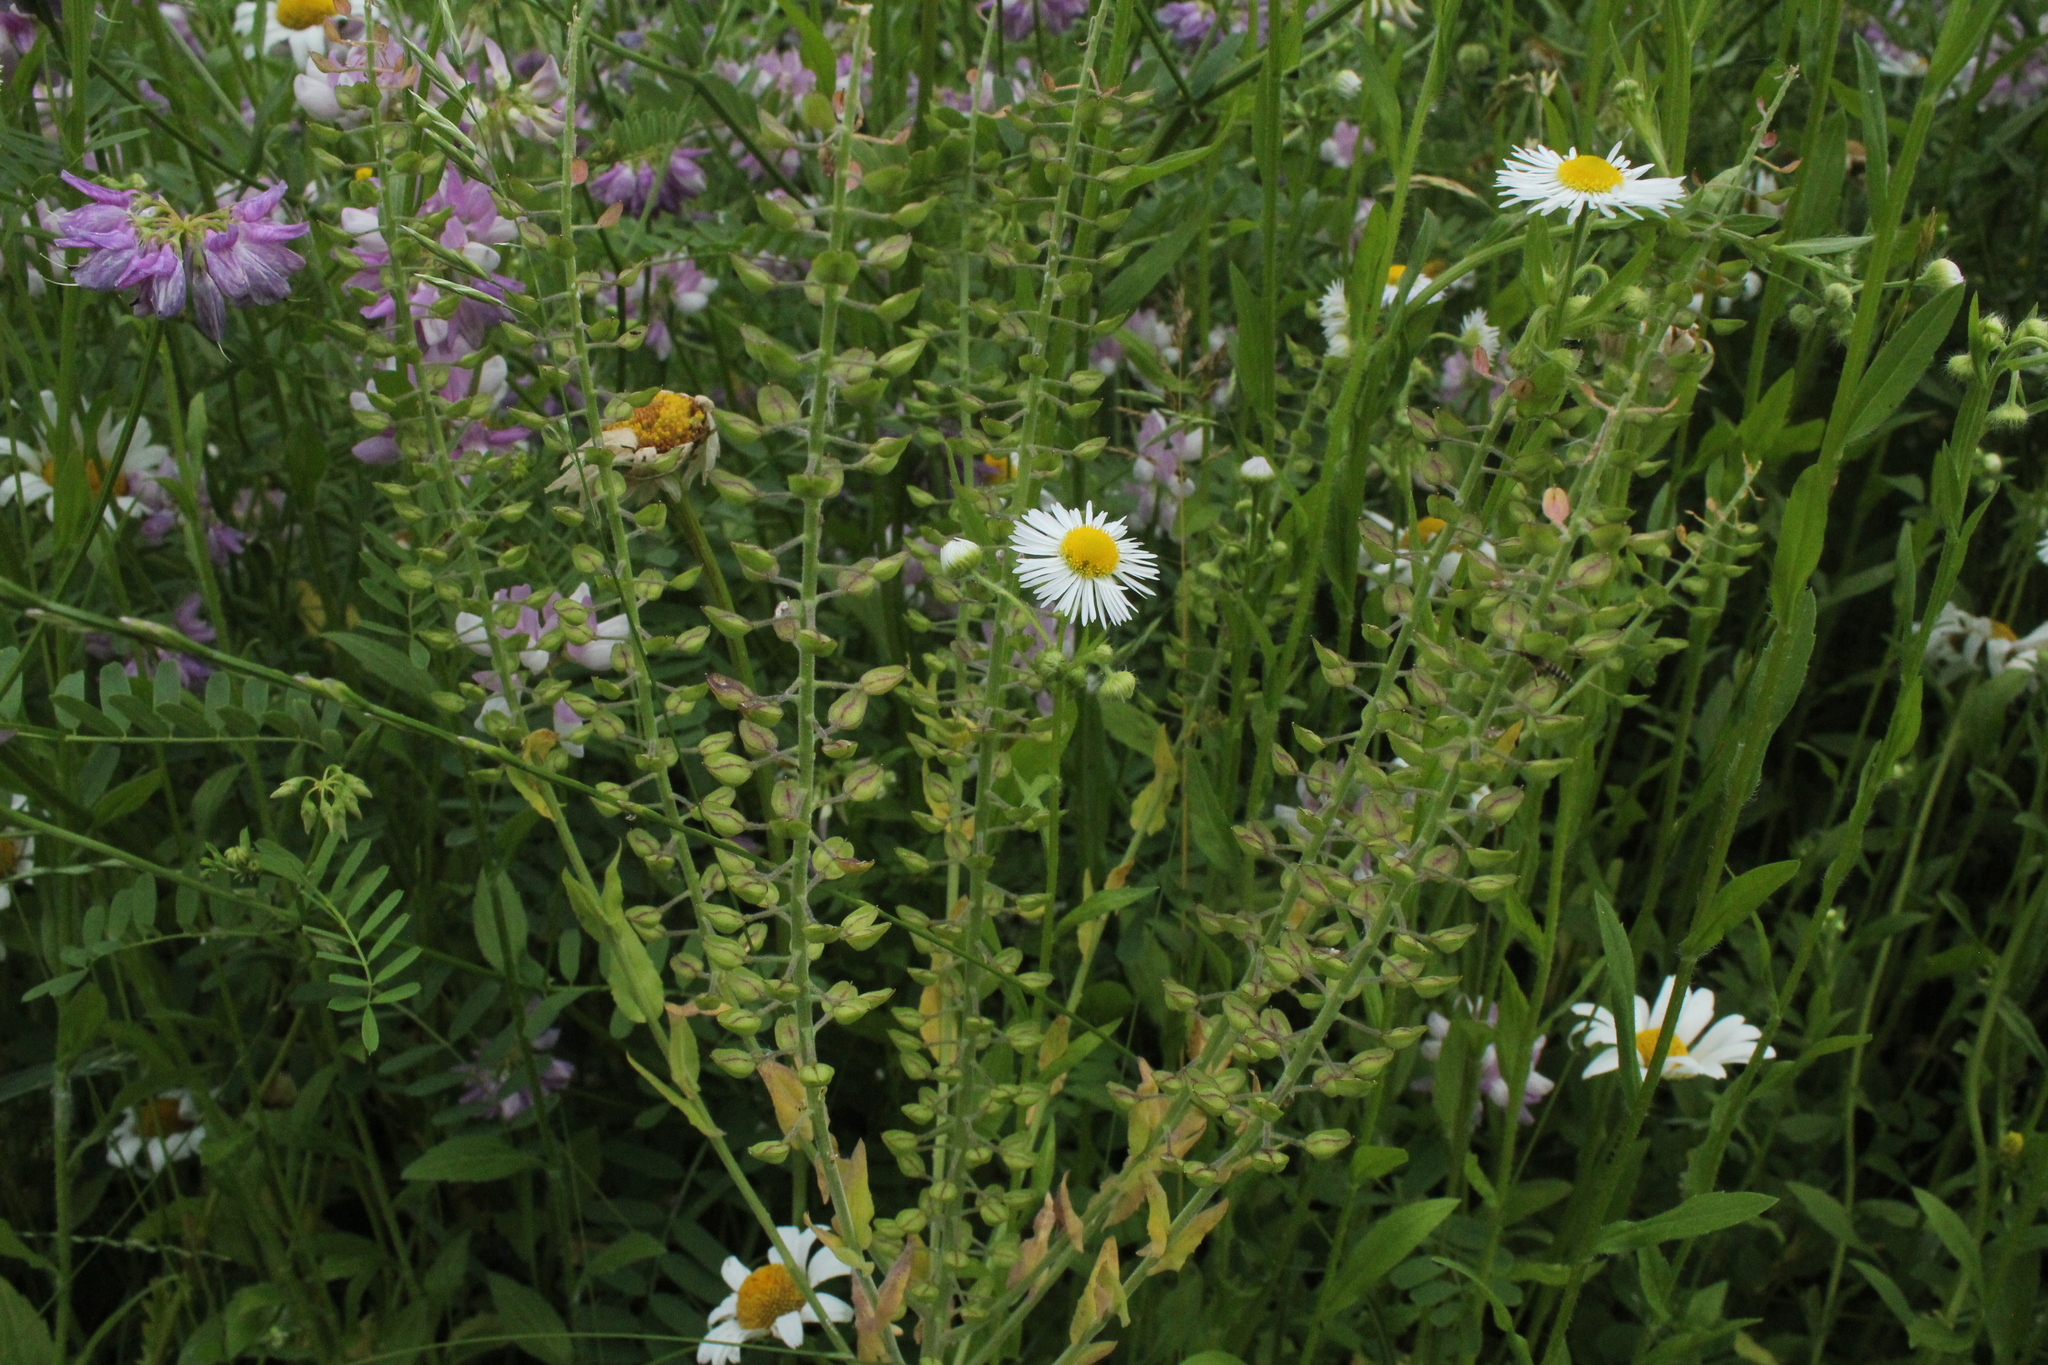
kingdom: Plantae
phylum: Tracheophyta
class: Magnoliopsida
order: Brassicales
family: Brassicaceae
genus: Lepidium
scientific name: Lepidium campestre
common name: Field pepperwort
